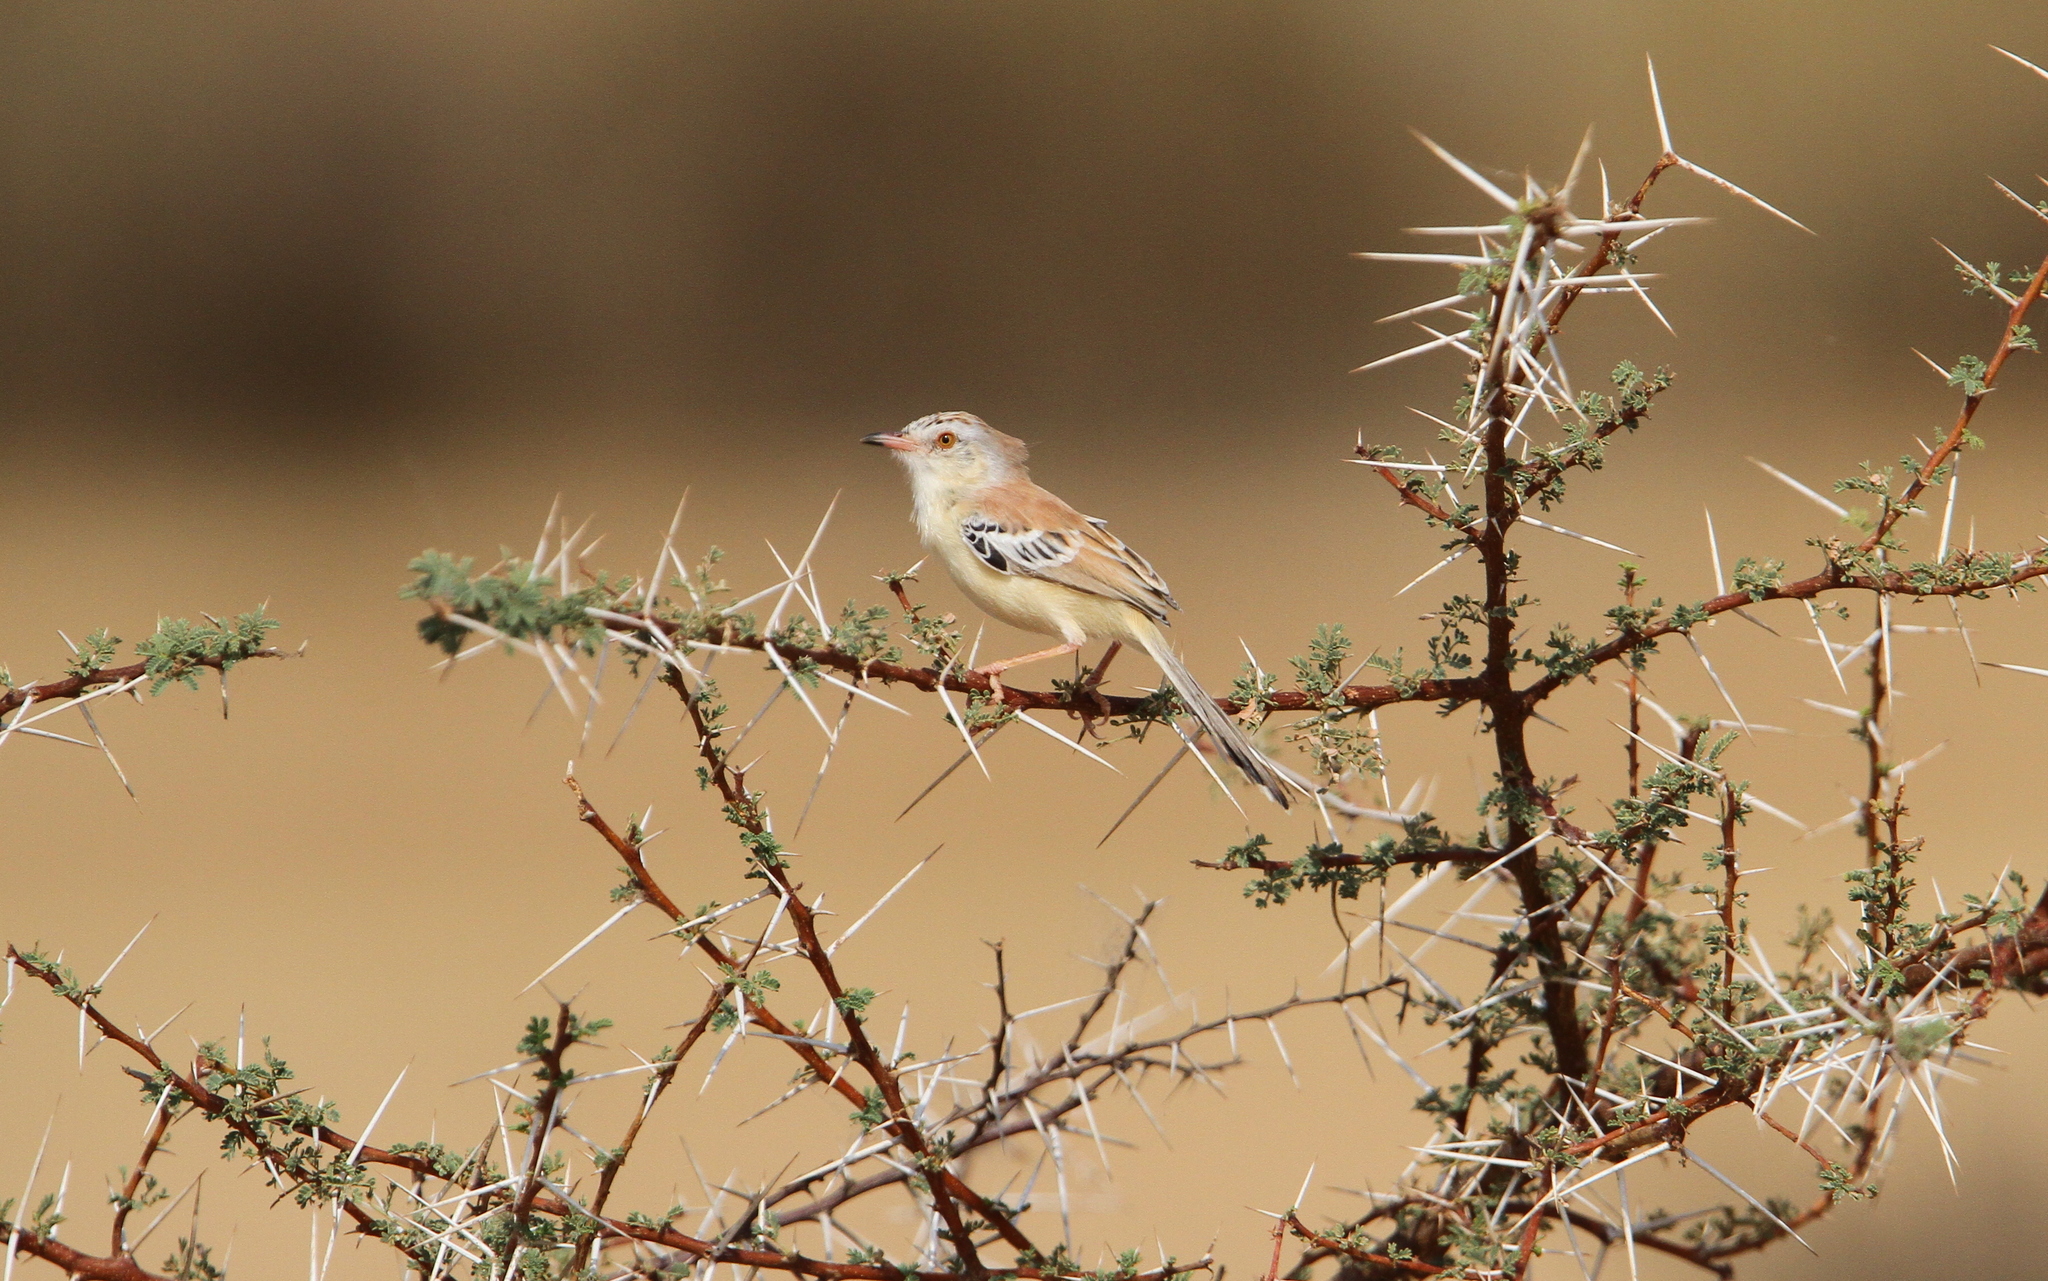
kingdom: Animalia
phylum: Chordata
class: Aves
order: Passeriformes
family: Cisticolidae
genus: Spiloptila
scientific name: Spiloptila clamans
